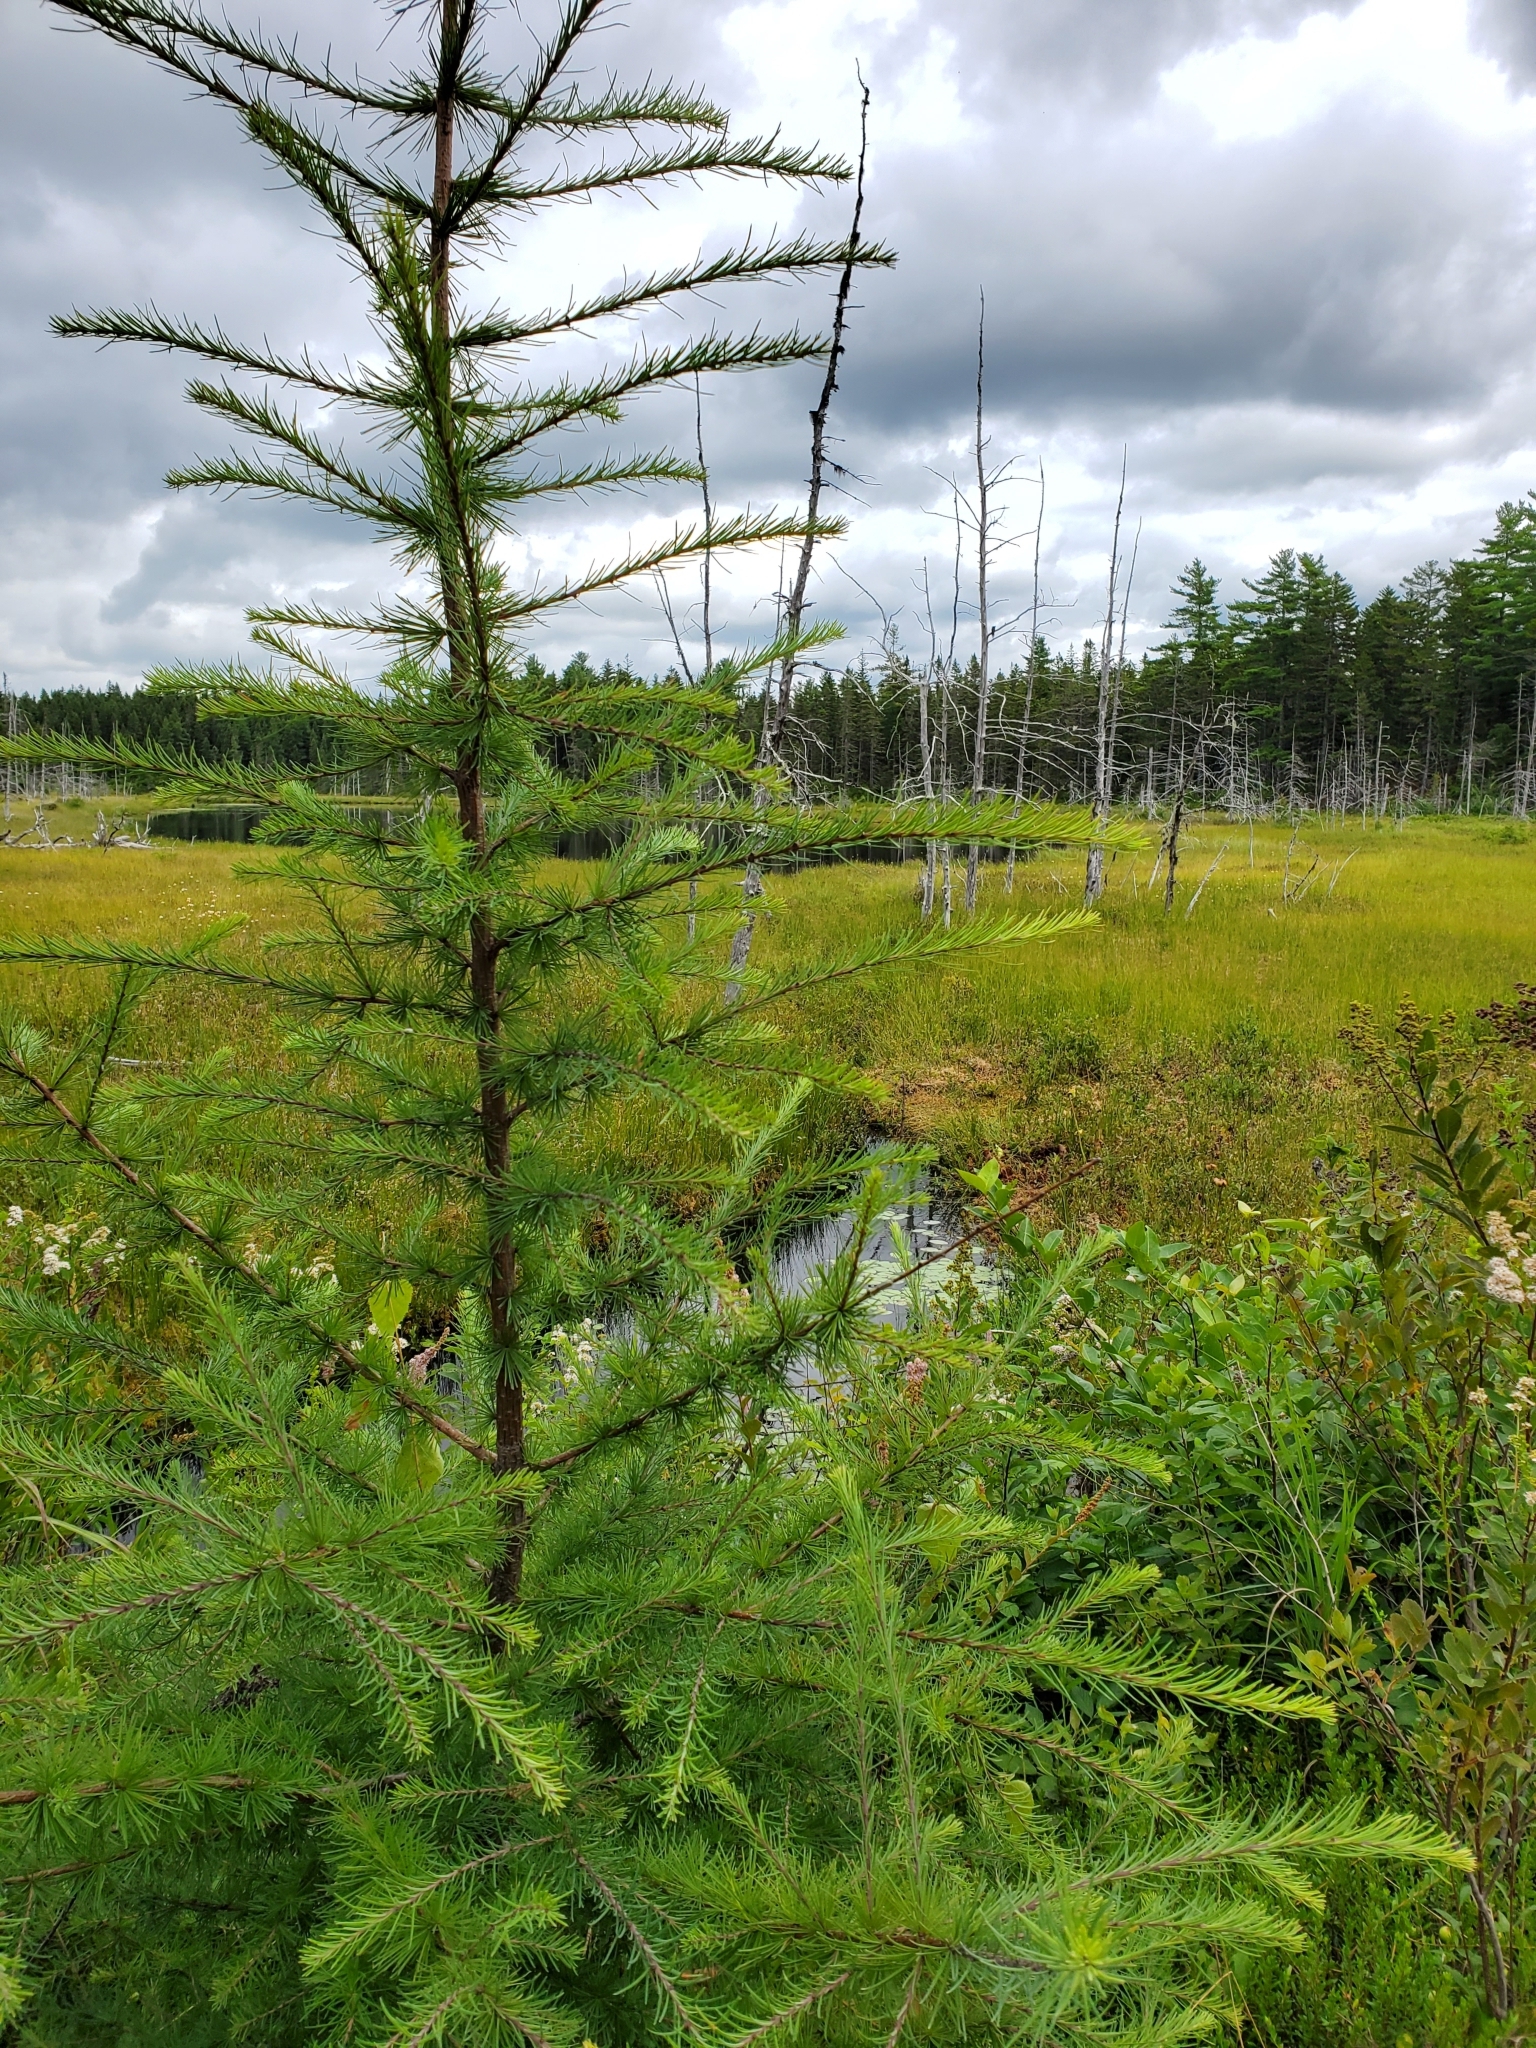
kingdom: Plantae
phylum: Tracheophyta
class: Pinopsida
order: Pinales
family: Pinaceae
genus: Larix
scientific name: Larix laricina
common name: American larch
